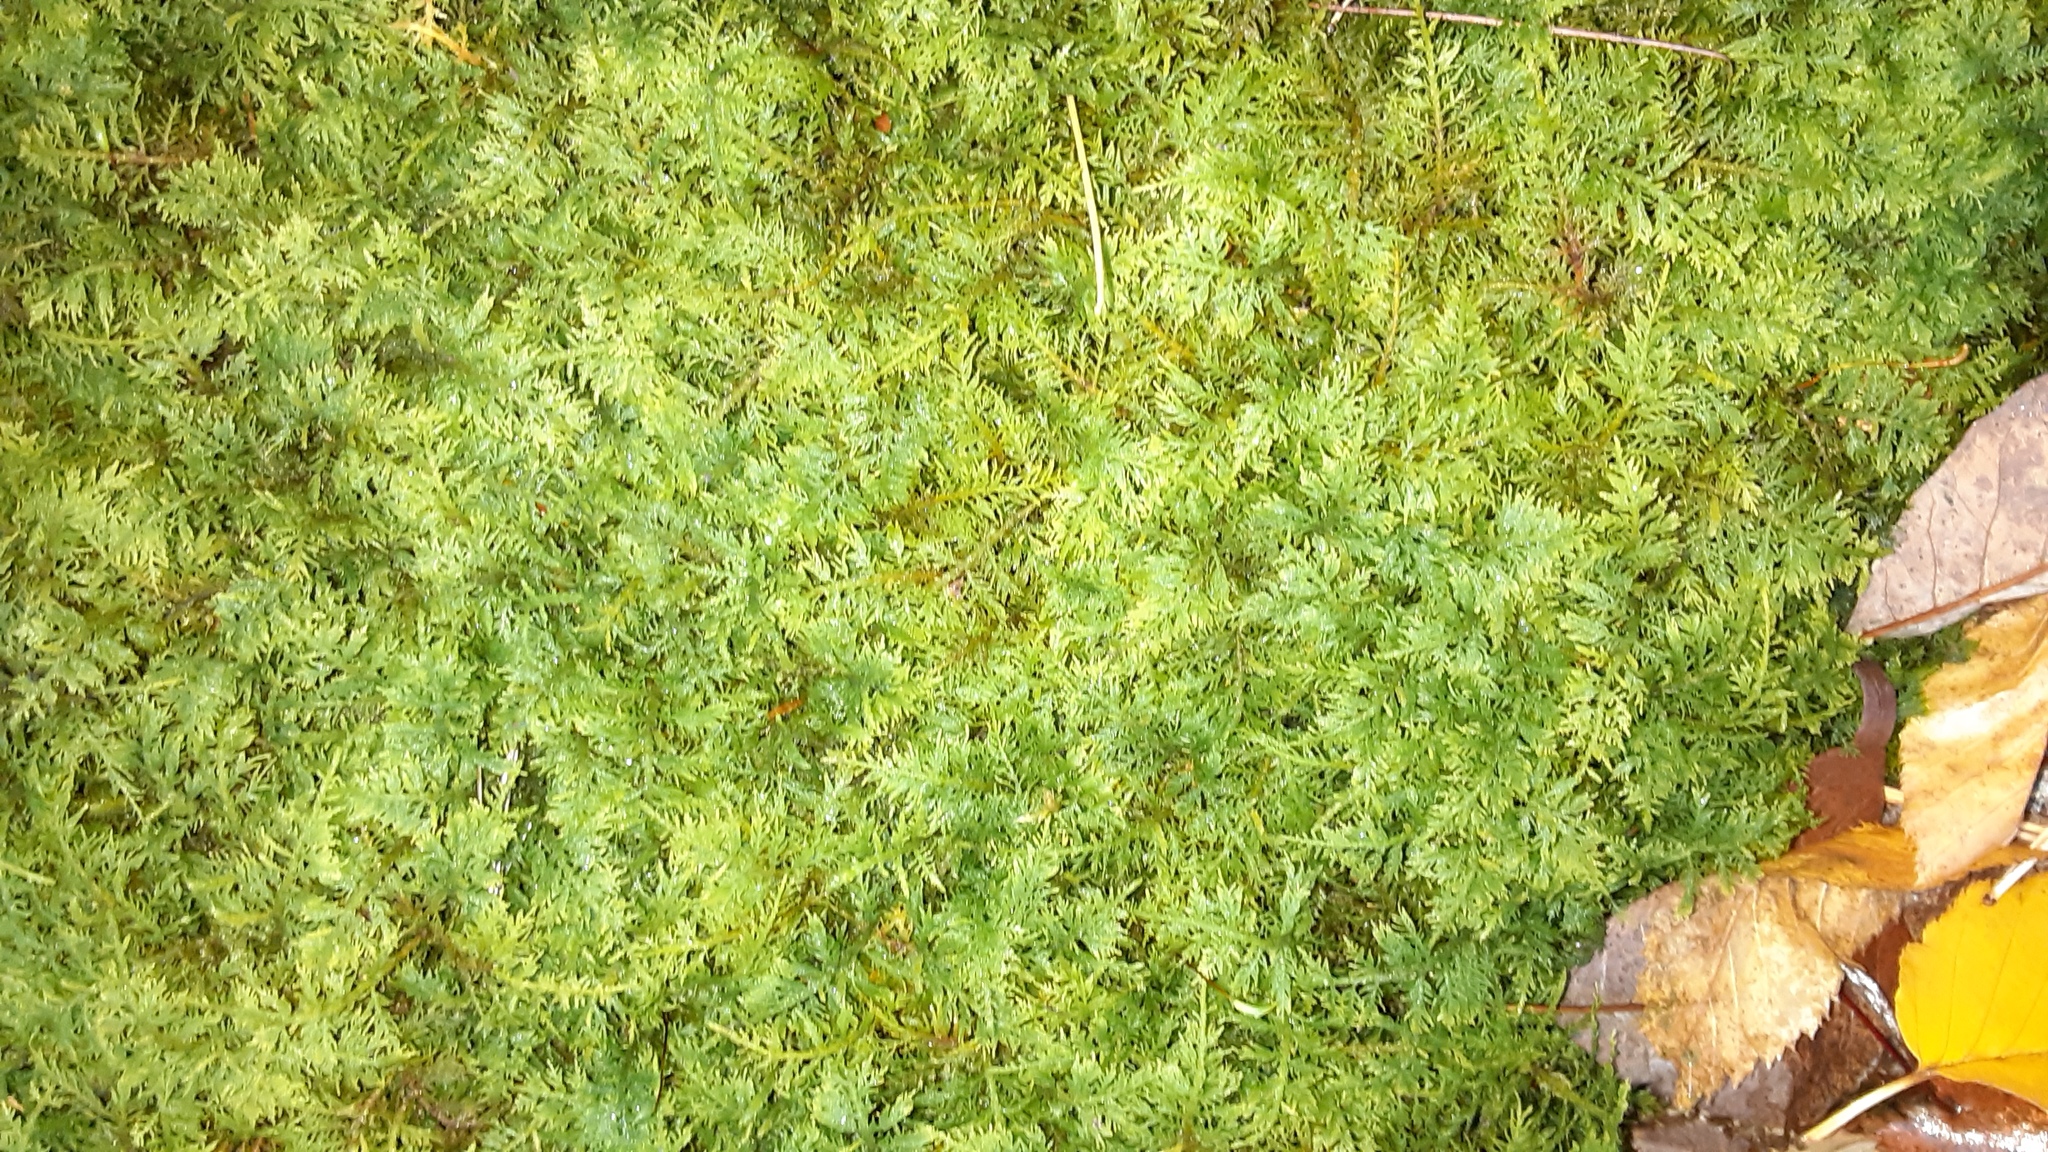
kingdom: Plantae
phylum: Bryophyta
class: Bryopsida
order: Hypnales
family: Thuidiaceae
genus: Thuidium
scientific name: Thuidium delicatulum
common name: Delicate fern moss
